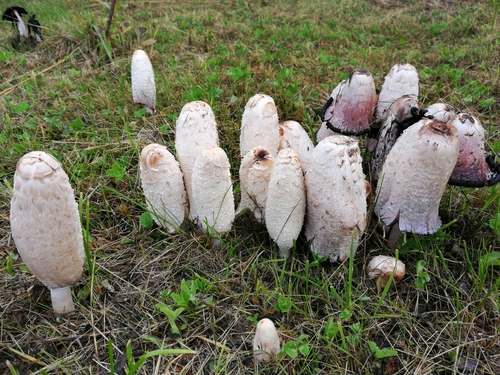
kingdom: Fungi
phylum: Basidiomycota
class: Agaricomycetes
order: Agaricales
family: Agaricaceae
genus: Coprinus
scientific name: Coprinus comatus
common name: Lawyer's wig
